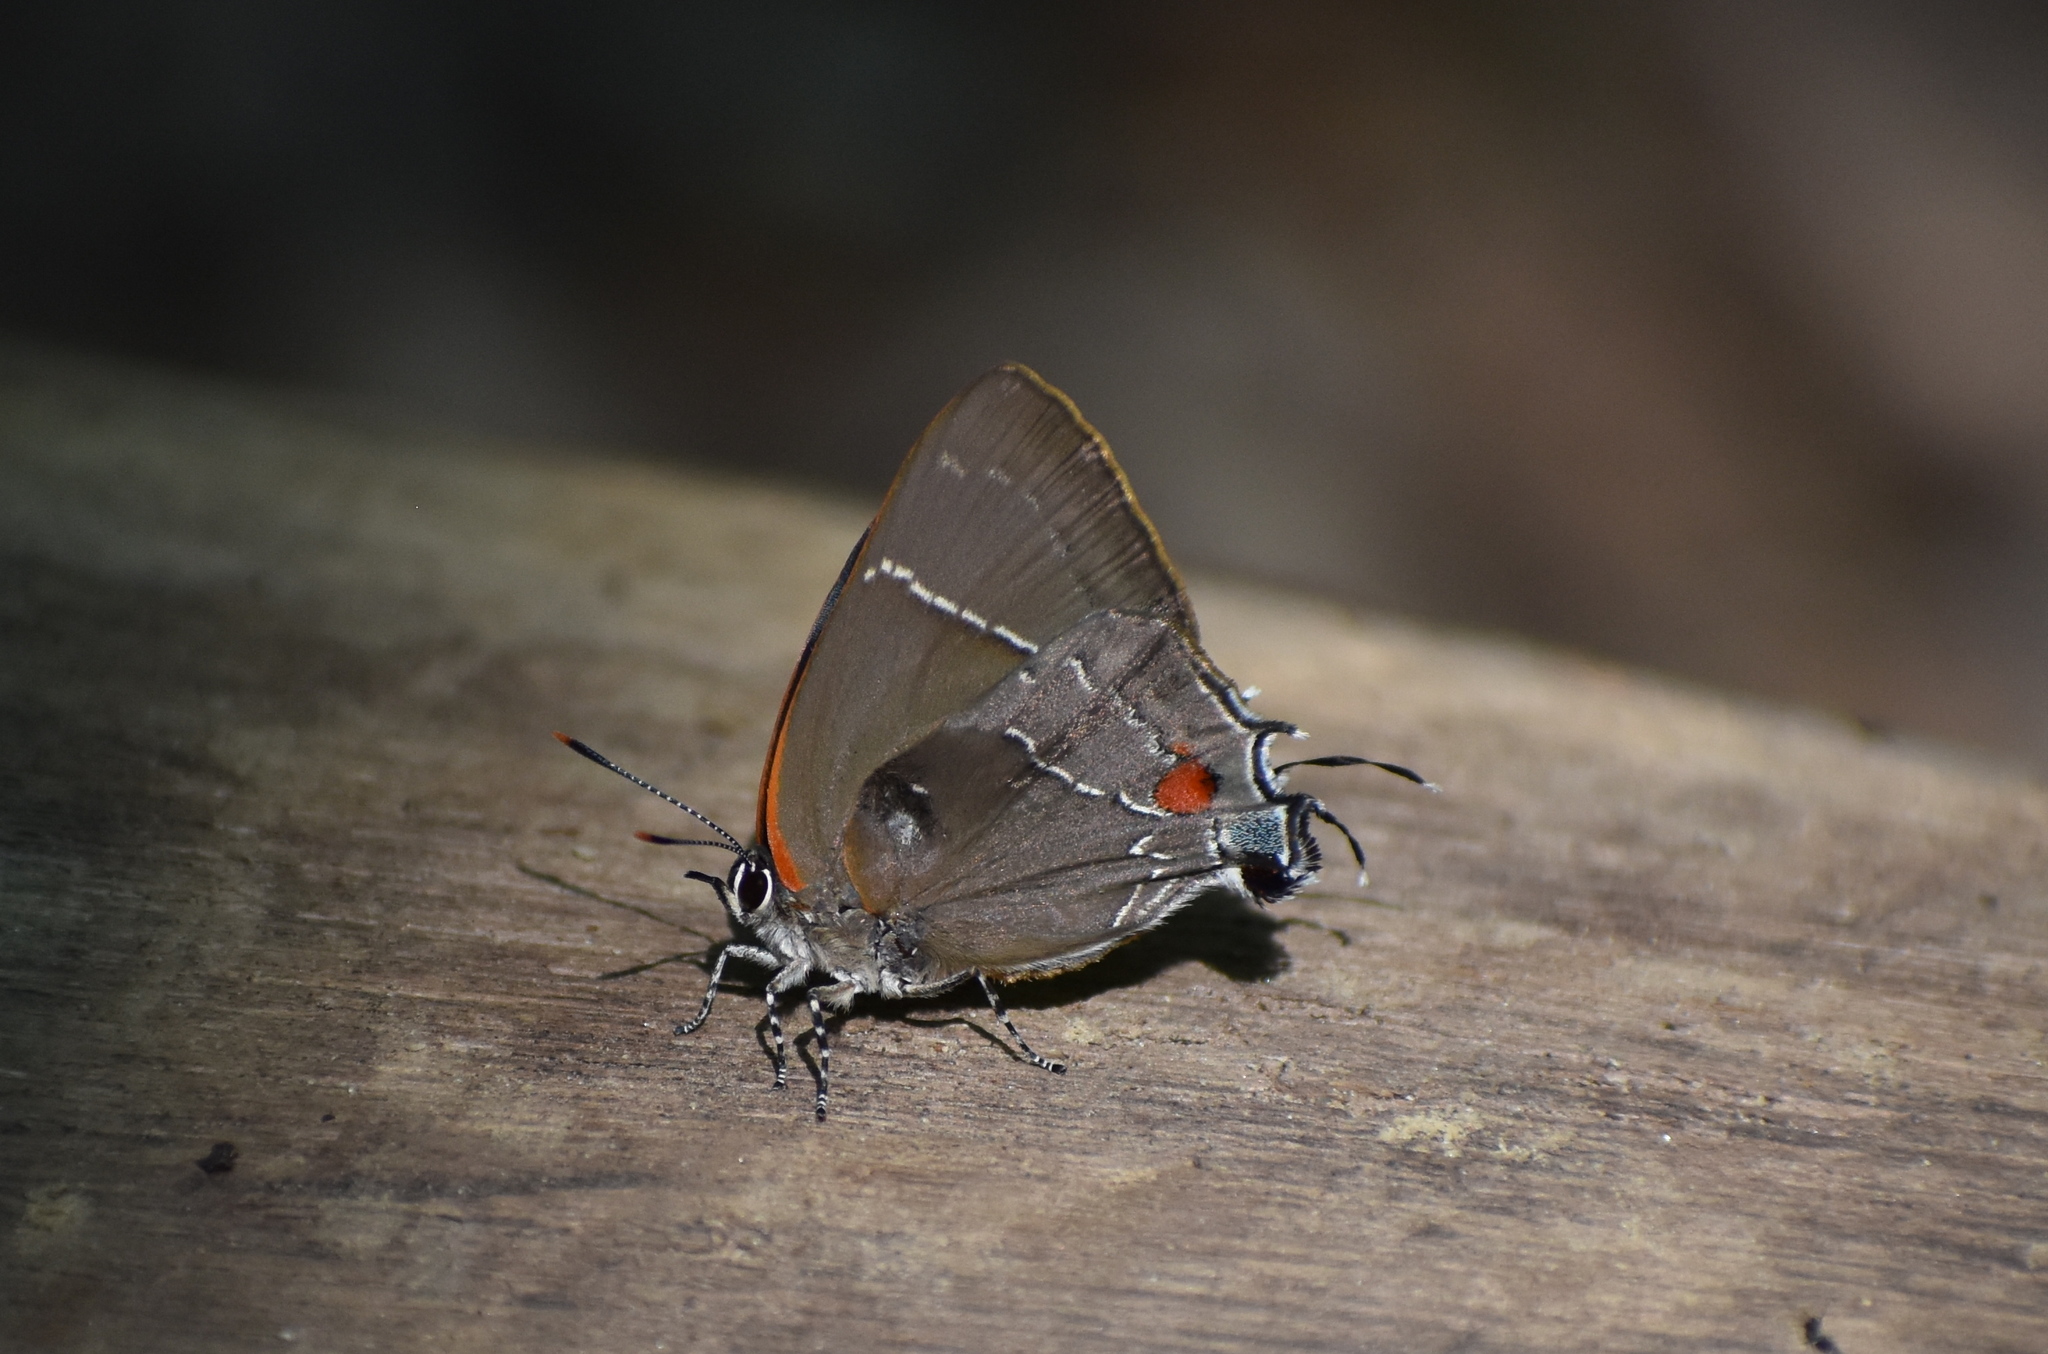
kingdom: Animalia
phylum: Arthropoda
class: Insecta
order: Lepidoptera
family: Lycaenidae
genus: Parrhasius
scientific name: Parrhasius m-album
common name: White m hairstreak
